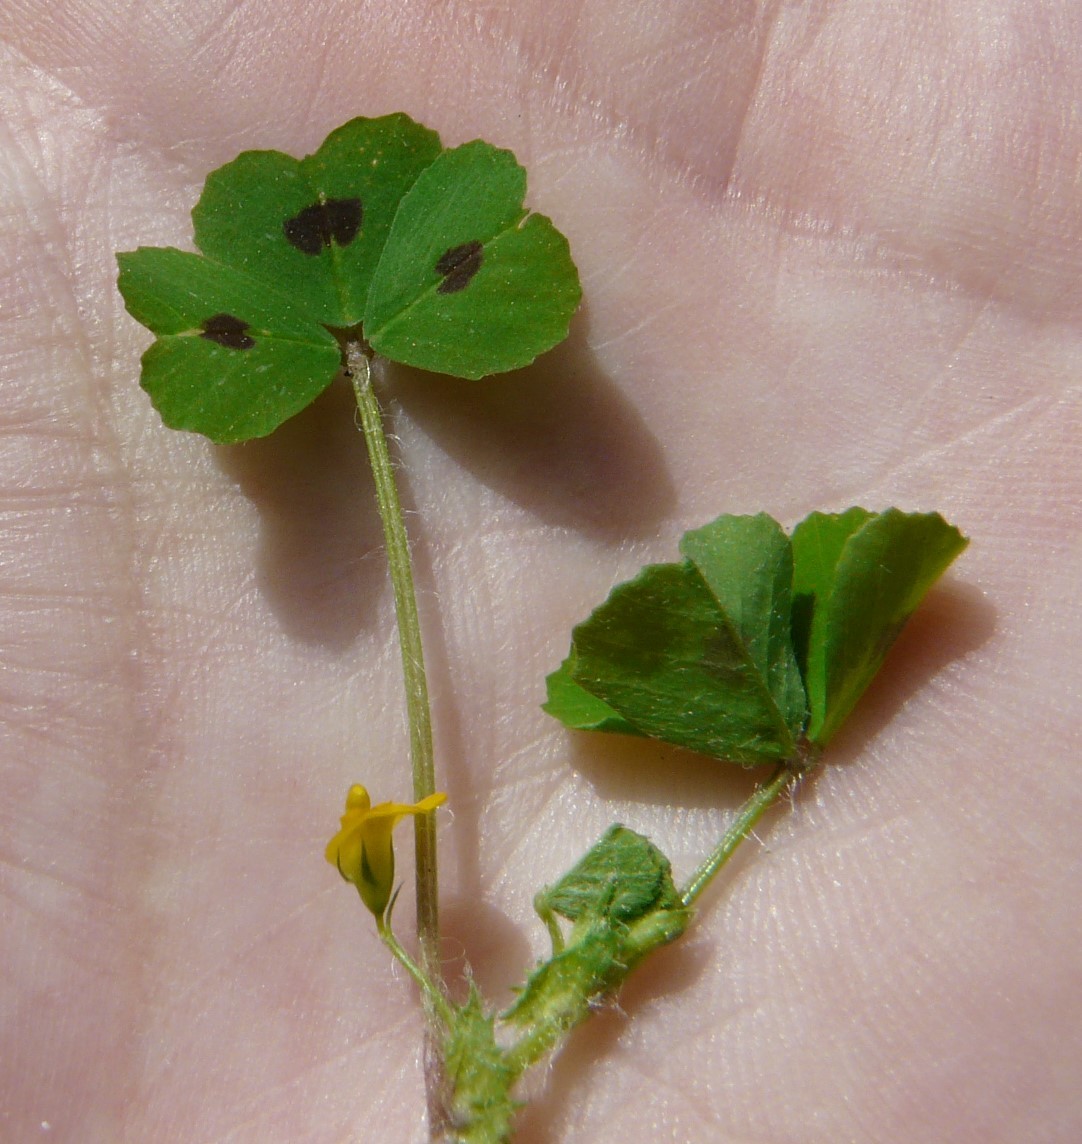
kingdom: Plantae
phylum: Tracheophyta
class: Magnoliopsida
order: Fabales
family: Fabaceae
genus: Medicago
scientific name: Medicago arabica
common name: Spotted medick
